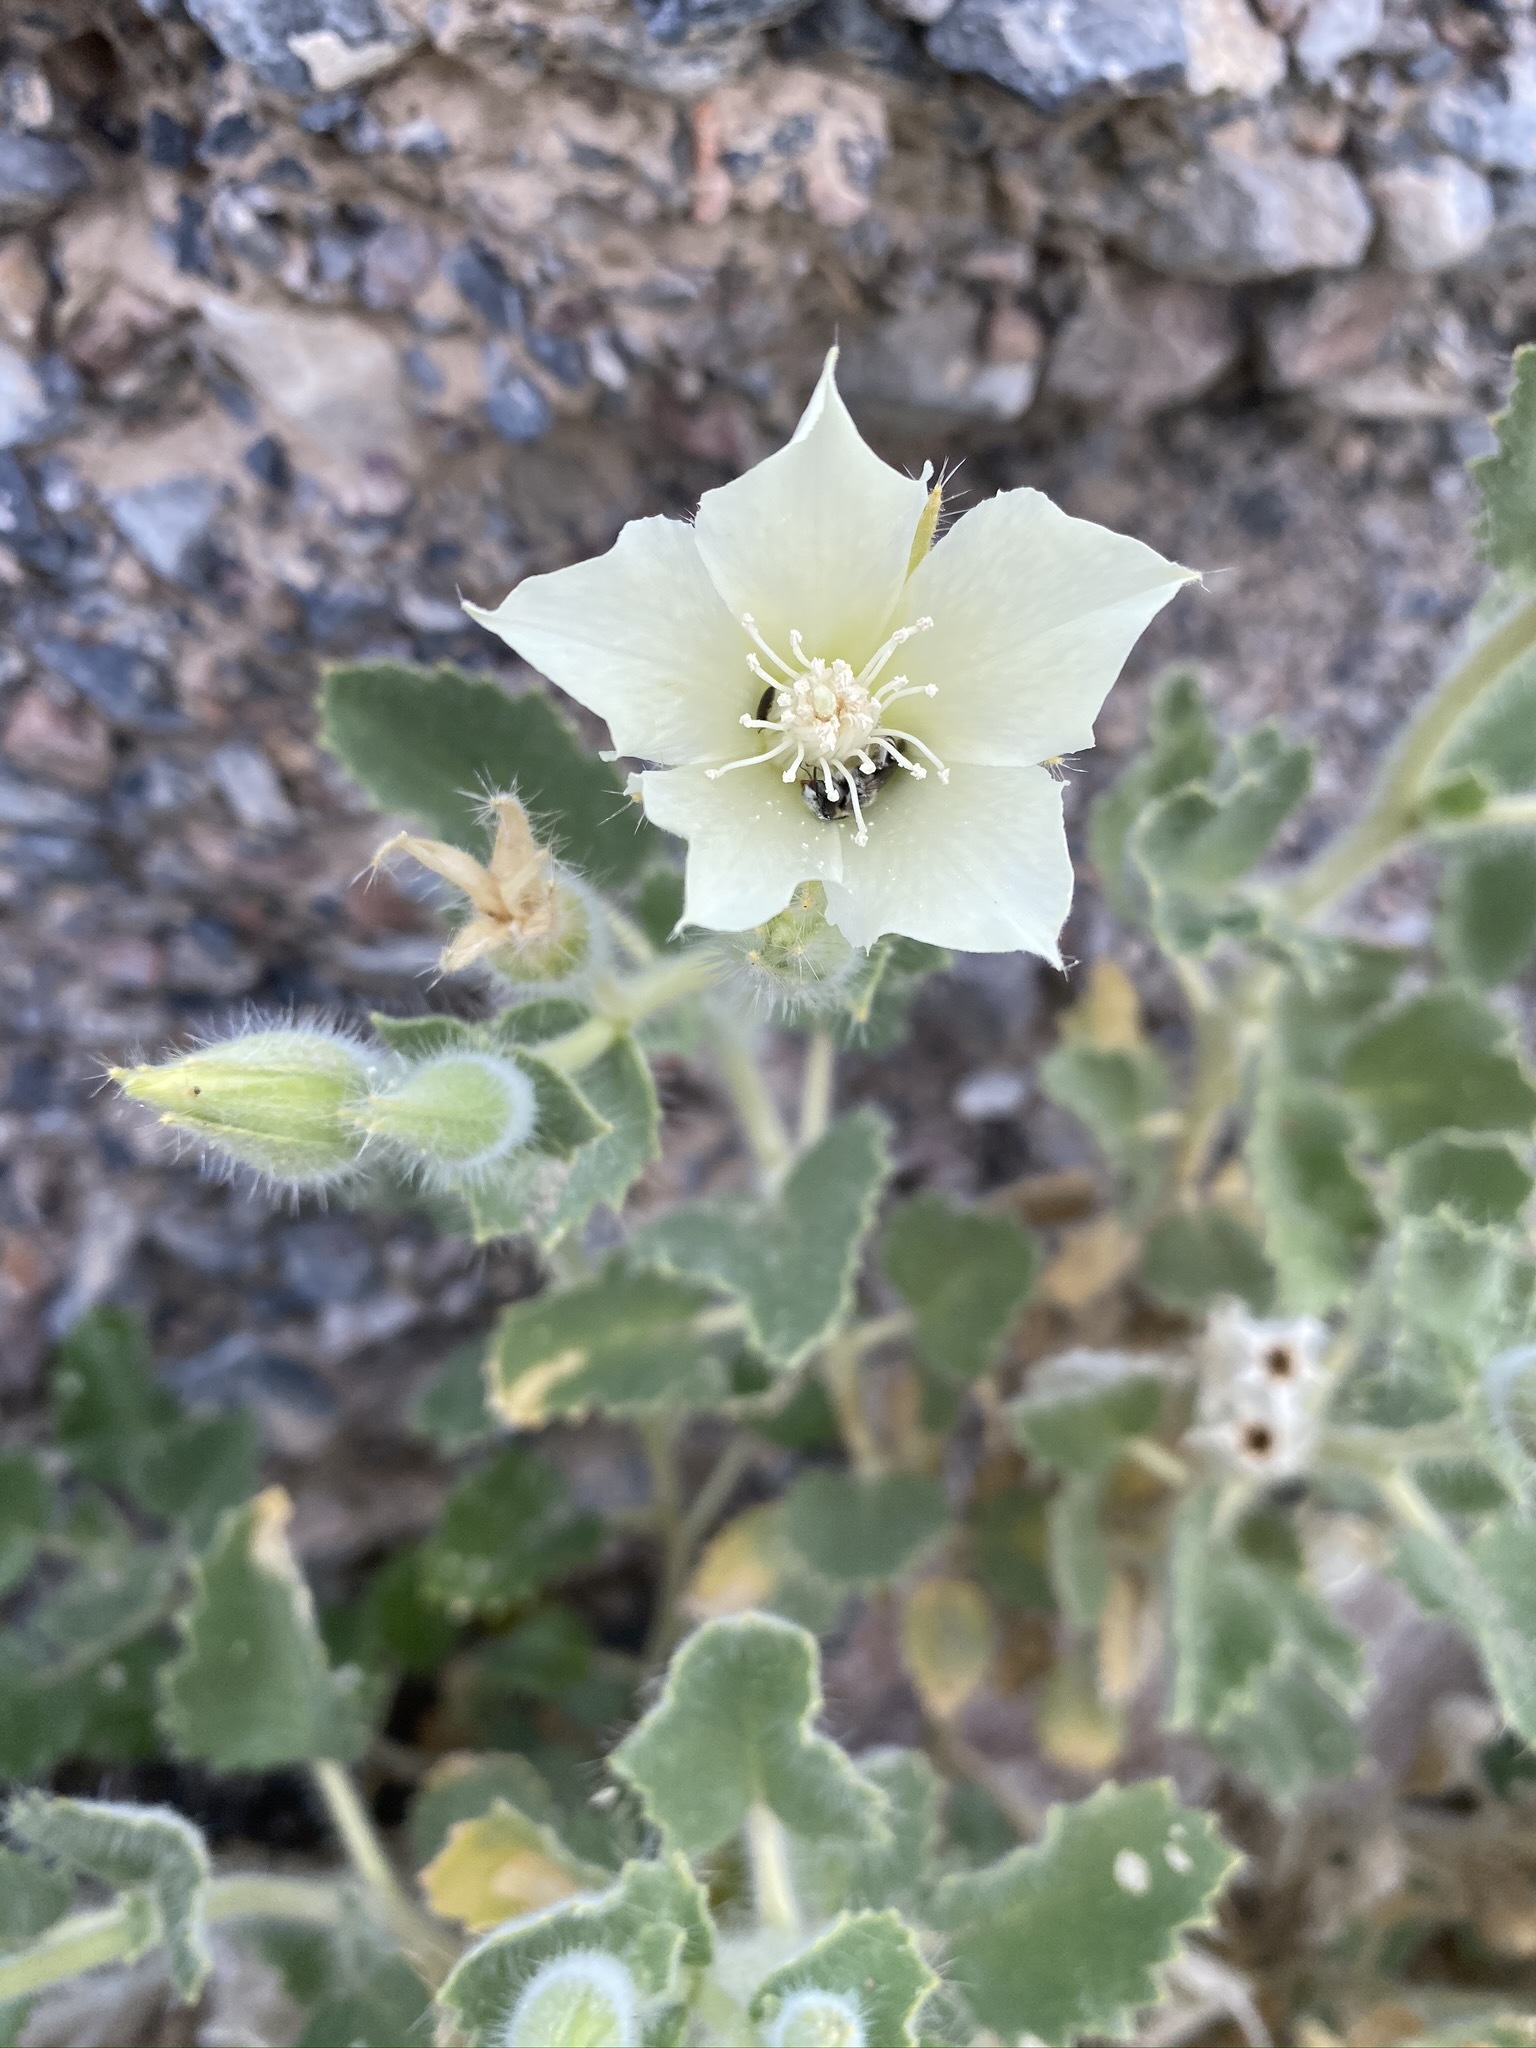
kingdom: Plantae
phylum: Tracheophyta
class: Magnoliopsida
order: Cornales
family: Loasaceae
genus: Eucnide
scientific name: Eucnide urens
